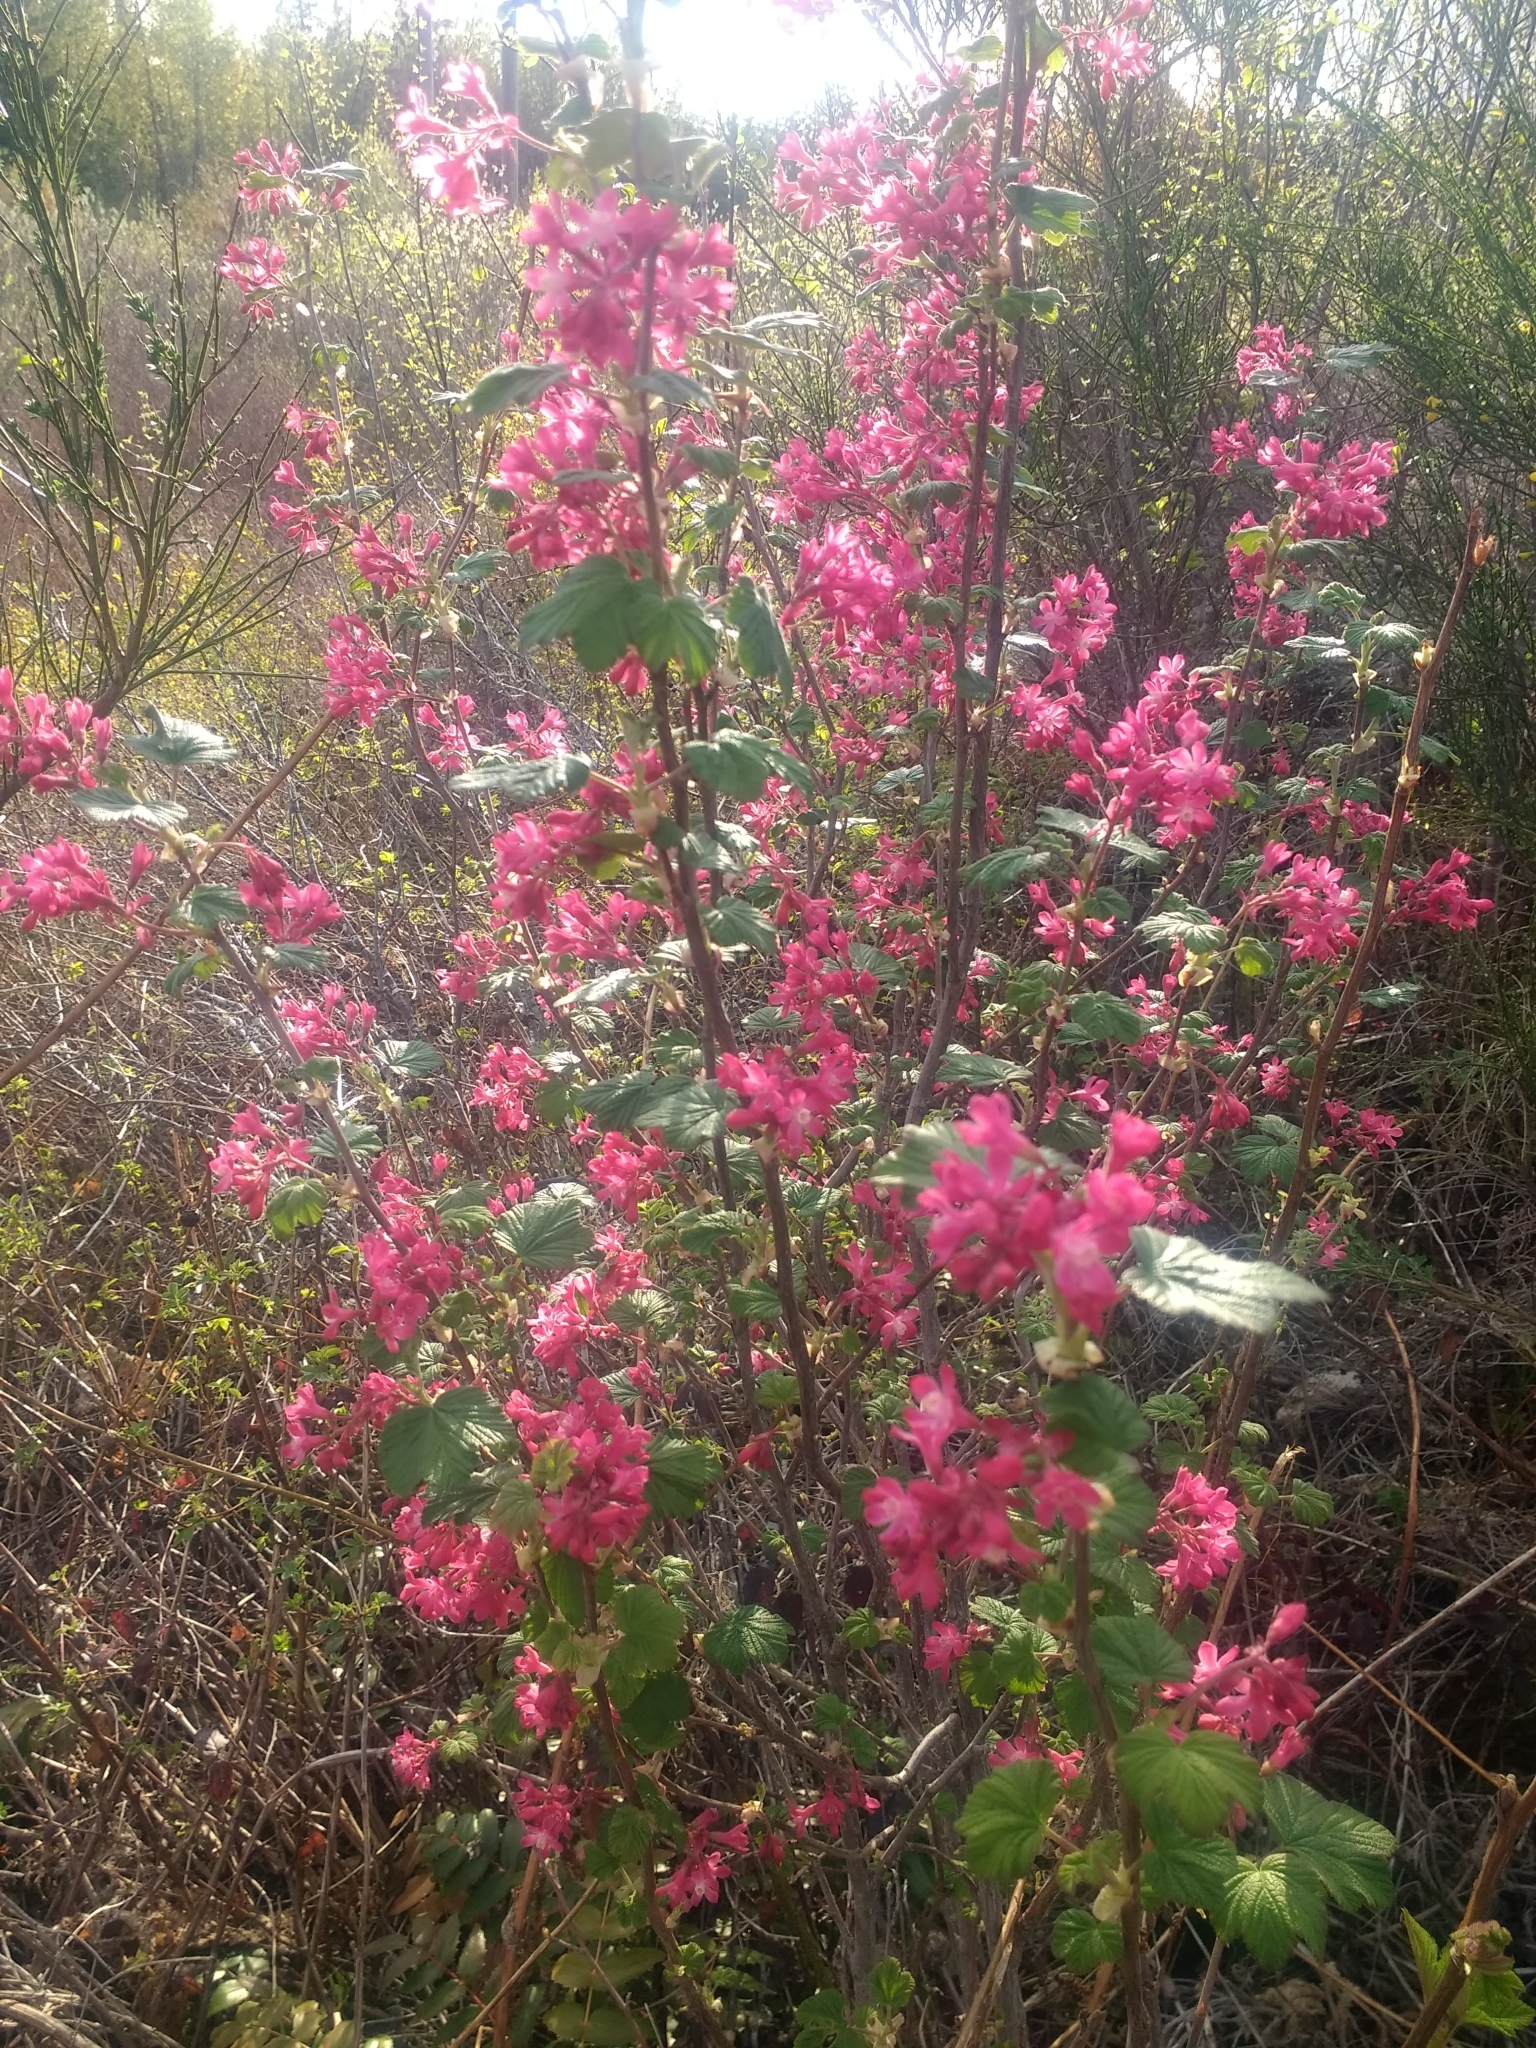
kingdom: Plantae
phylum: Tracheophyta
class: Magnoliopsida
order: Saxifragales
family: Grossulariaceae
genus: Ribes
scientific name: Ribes sanguineum
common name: Flowering currant
